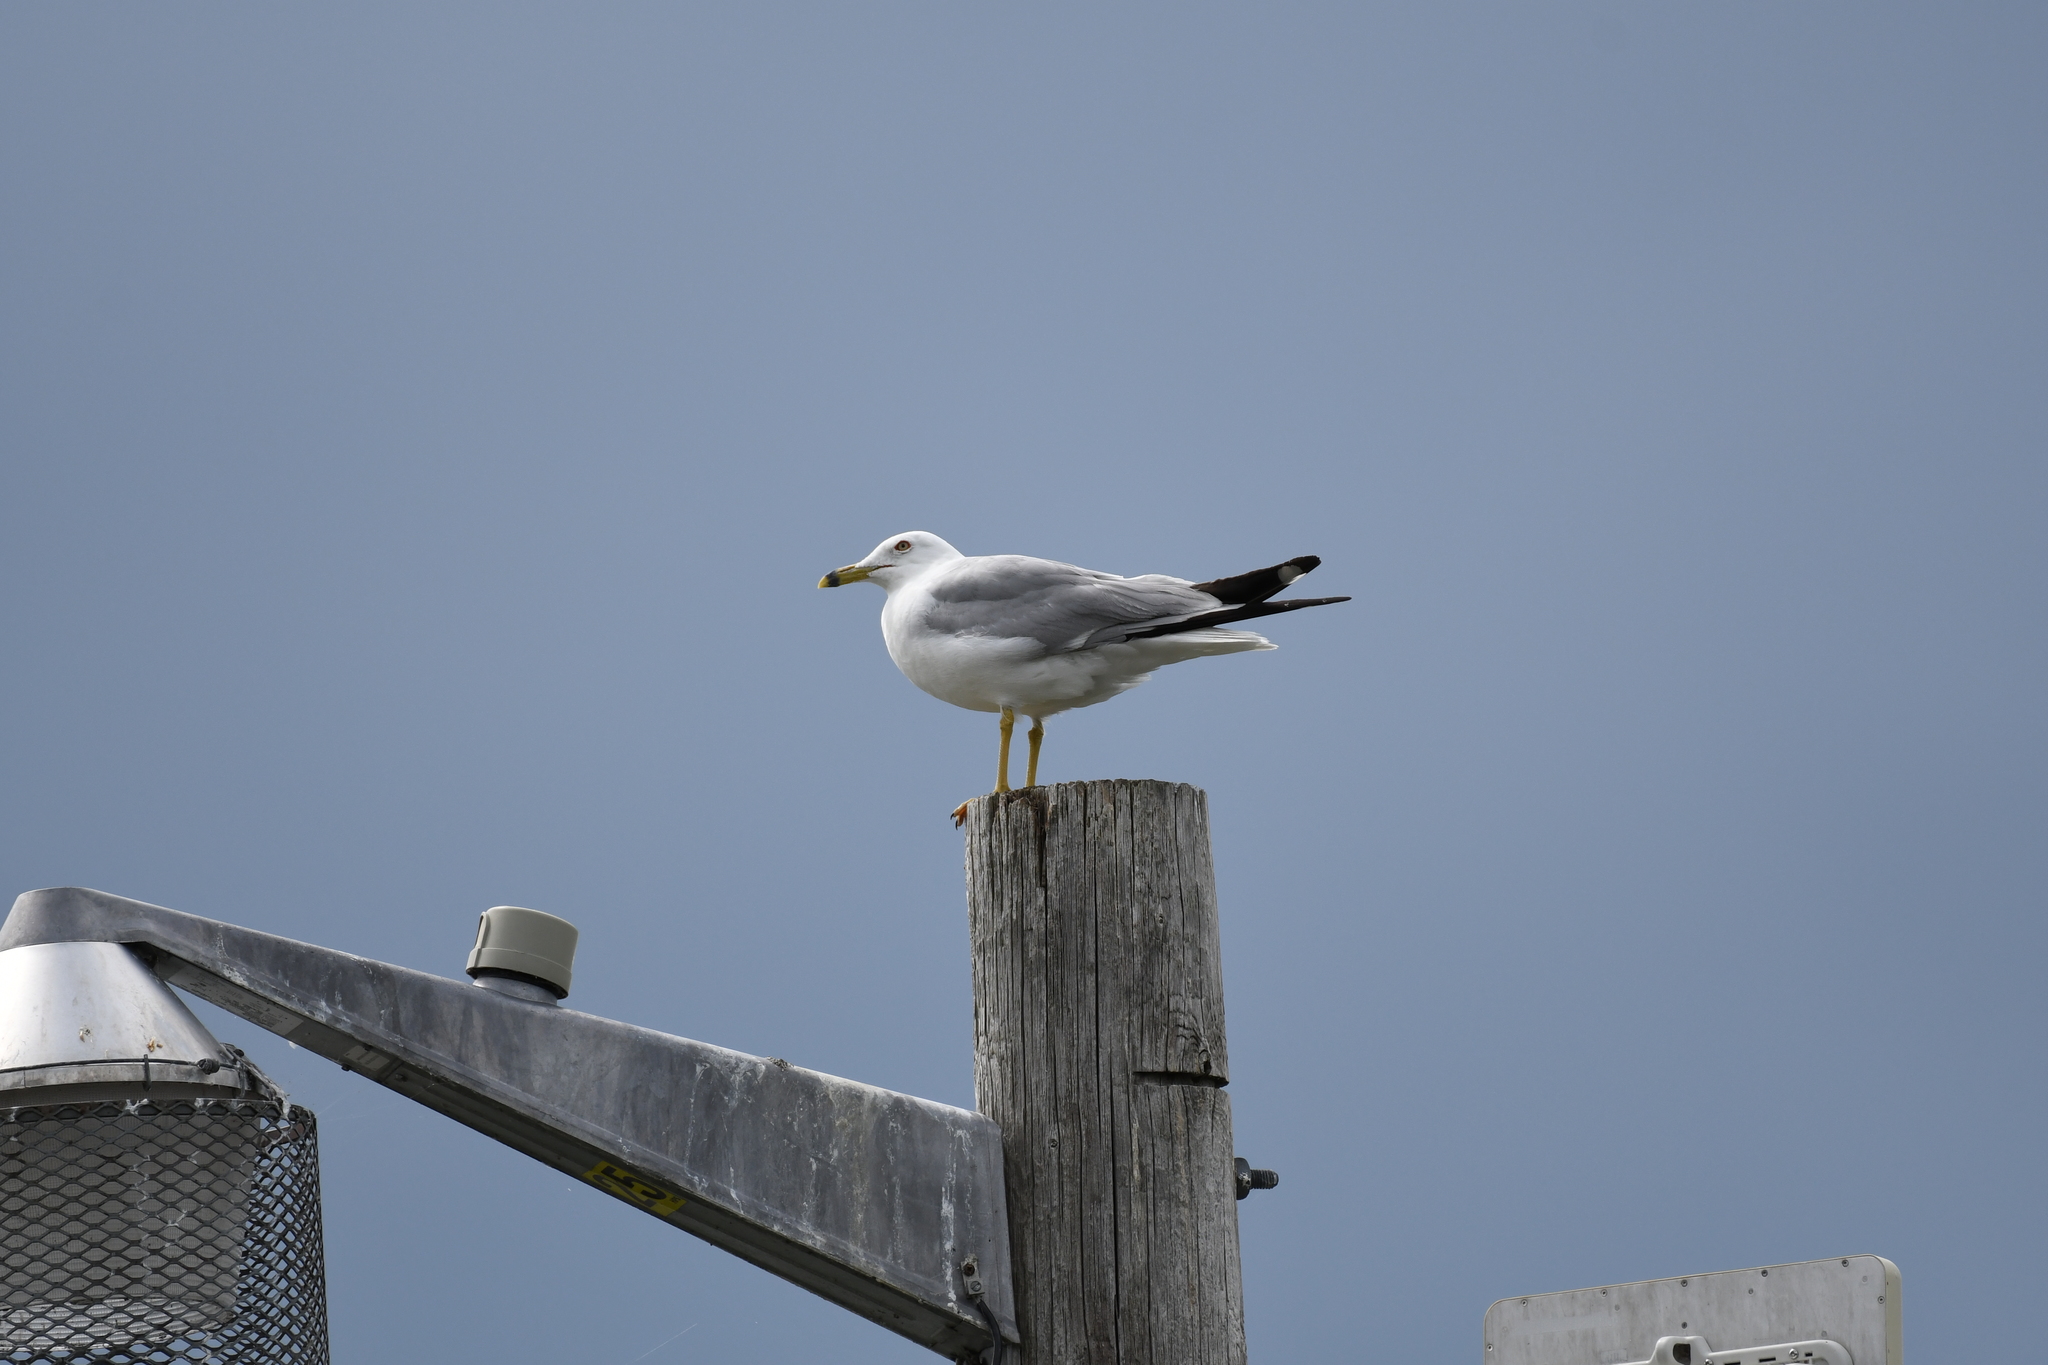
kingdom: Animalia
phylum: Chordata
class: Aves
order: Charadriiformes
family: Laridae
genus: Larus
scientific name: Larus delawarensis
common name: Ring-billed gull
